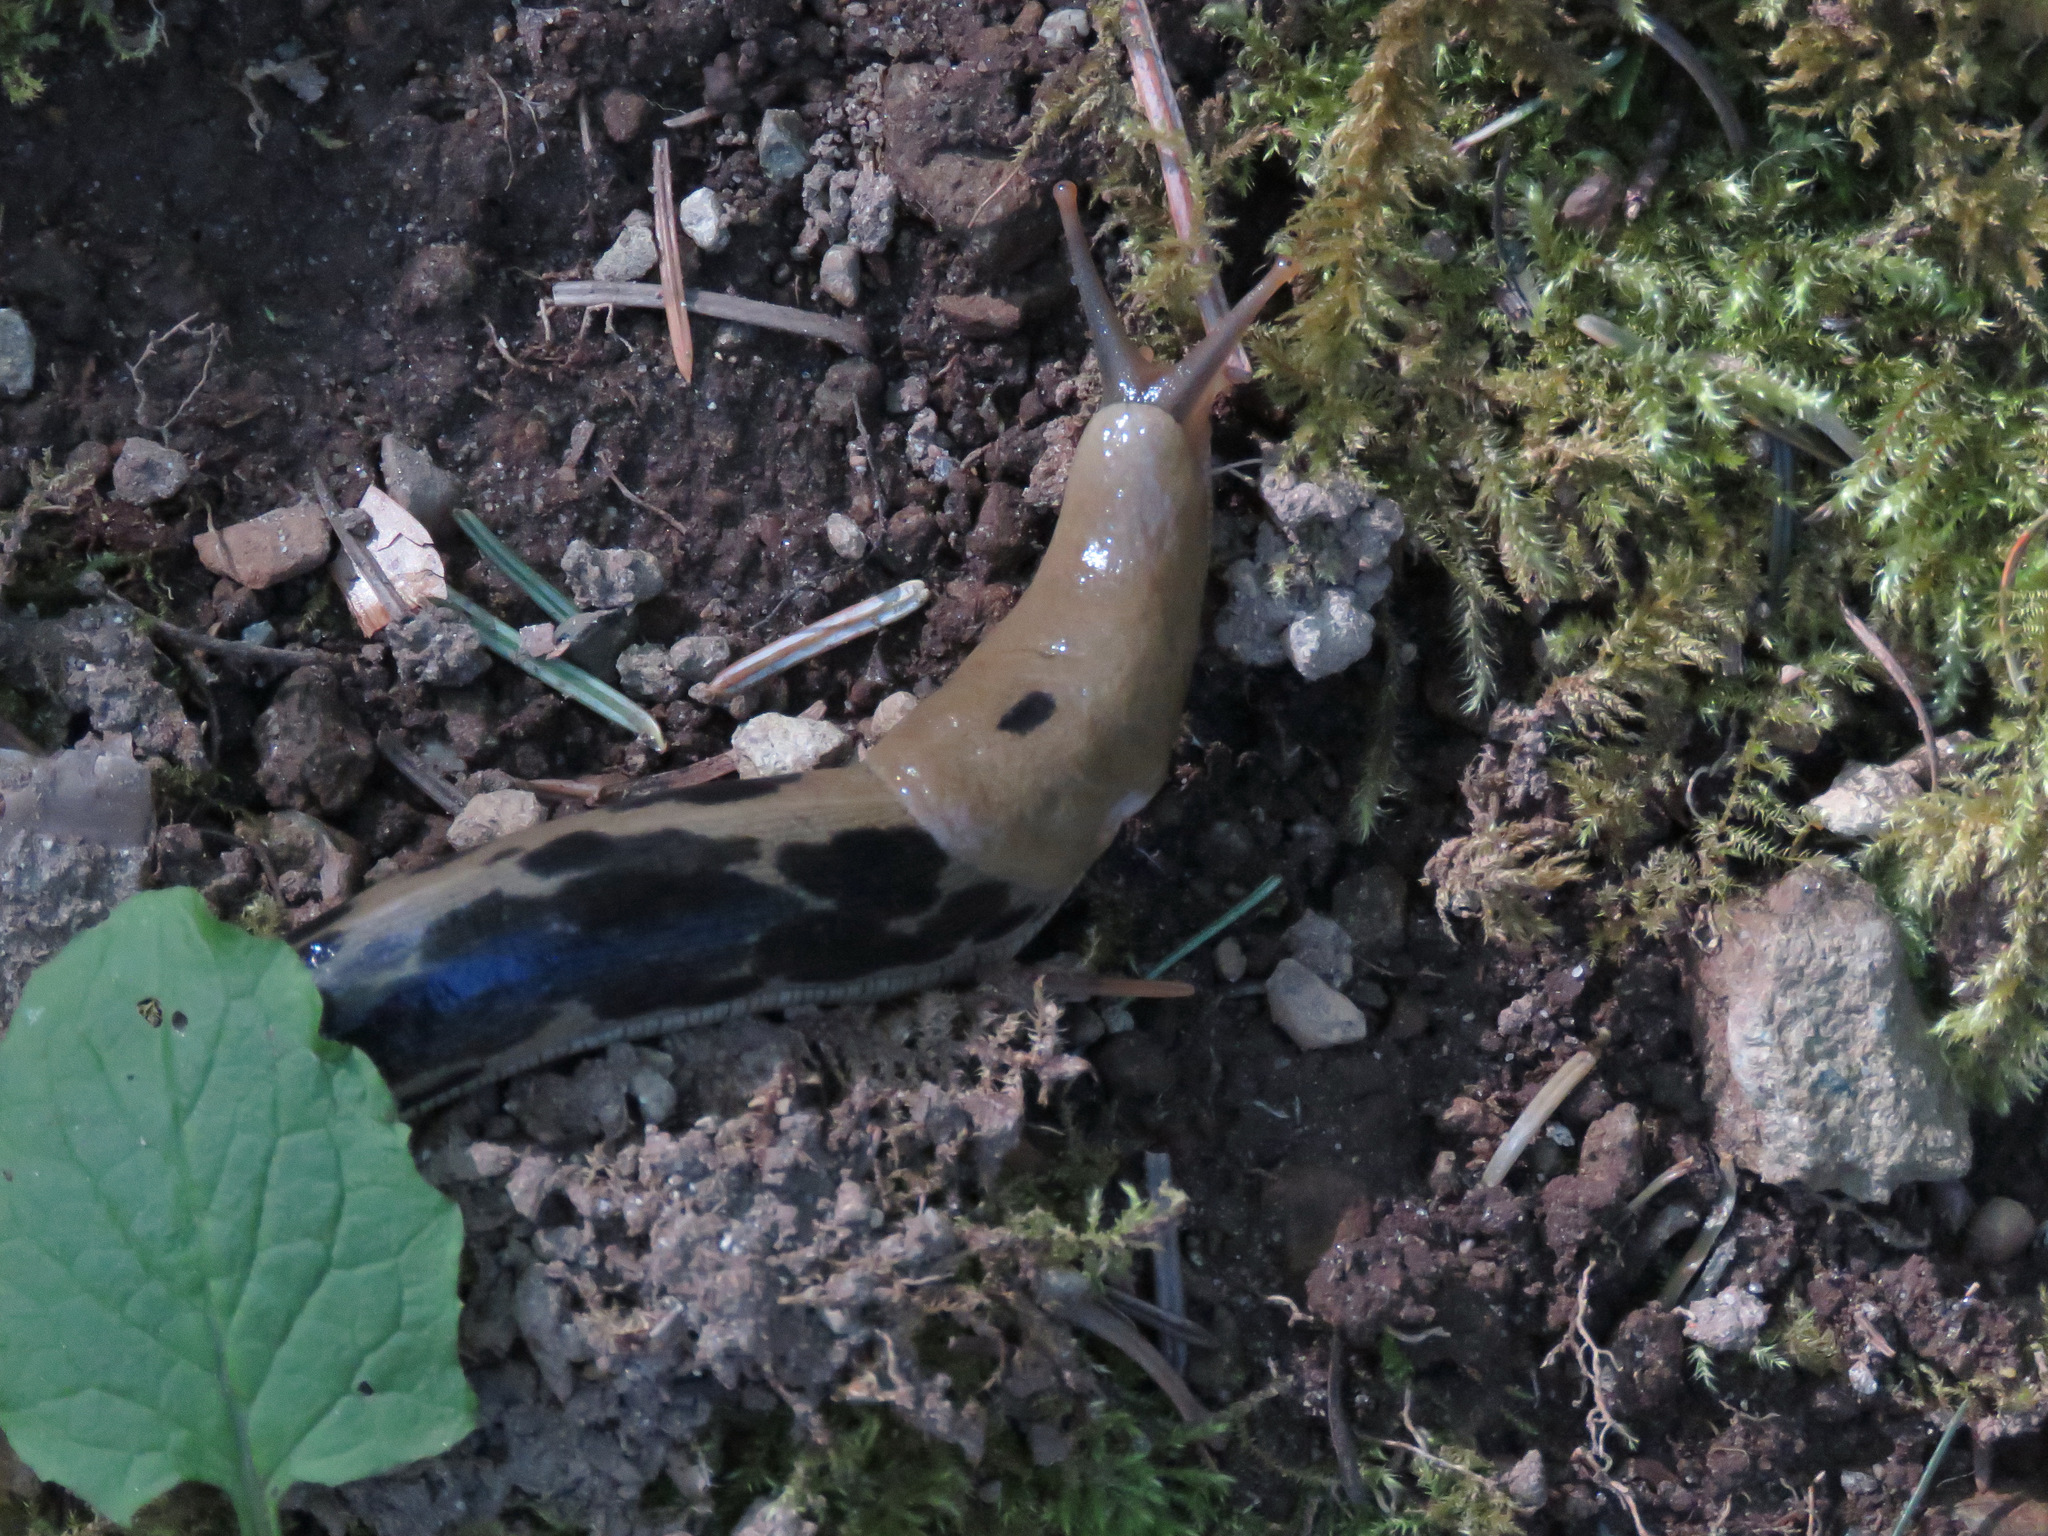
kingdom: Animalia
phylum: Mollusca
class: Gastropoda
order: Stylommatophora
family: Ariolimacidae
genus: Ariolimax
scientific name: Ariolimax columbianus
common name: Pacific banana slug
